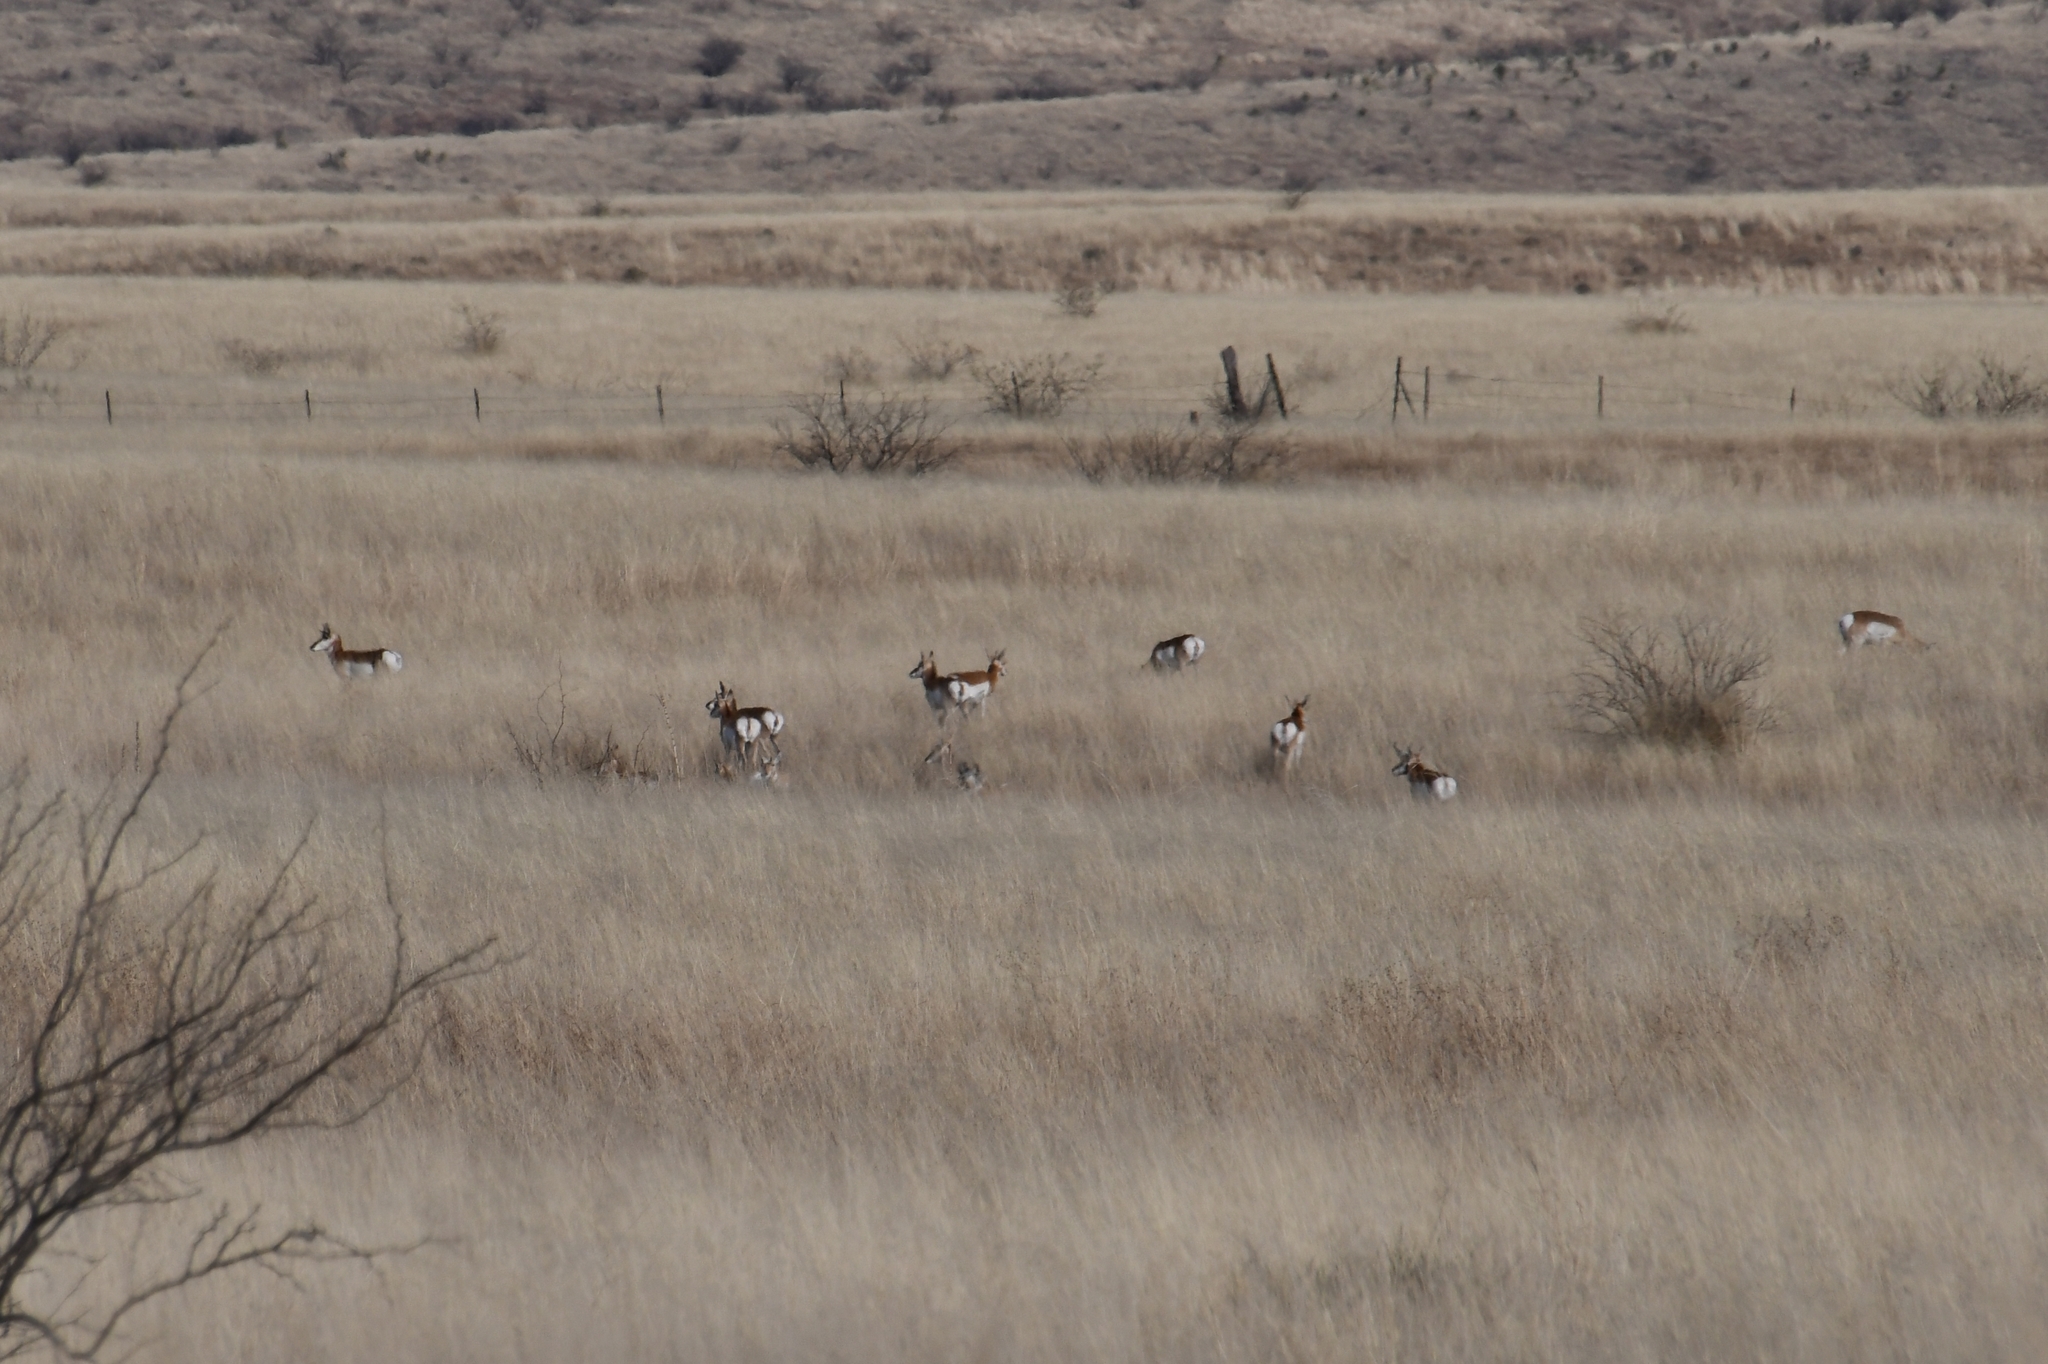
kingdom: Animalia
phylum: Chordata
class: Mammalia
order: Artiodactyla
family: Antilocapridae
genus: Antilocapra
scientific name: Antilocapra americana
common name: Pronghorn
